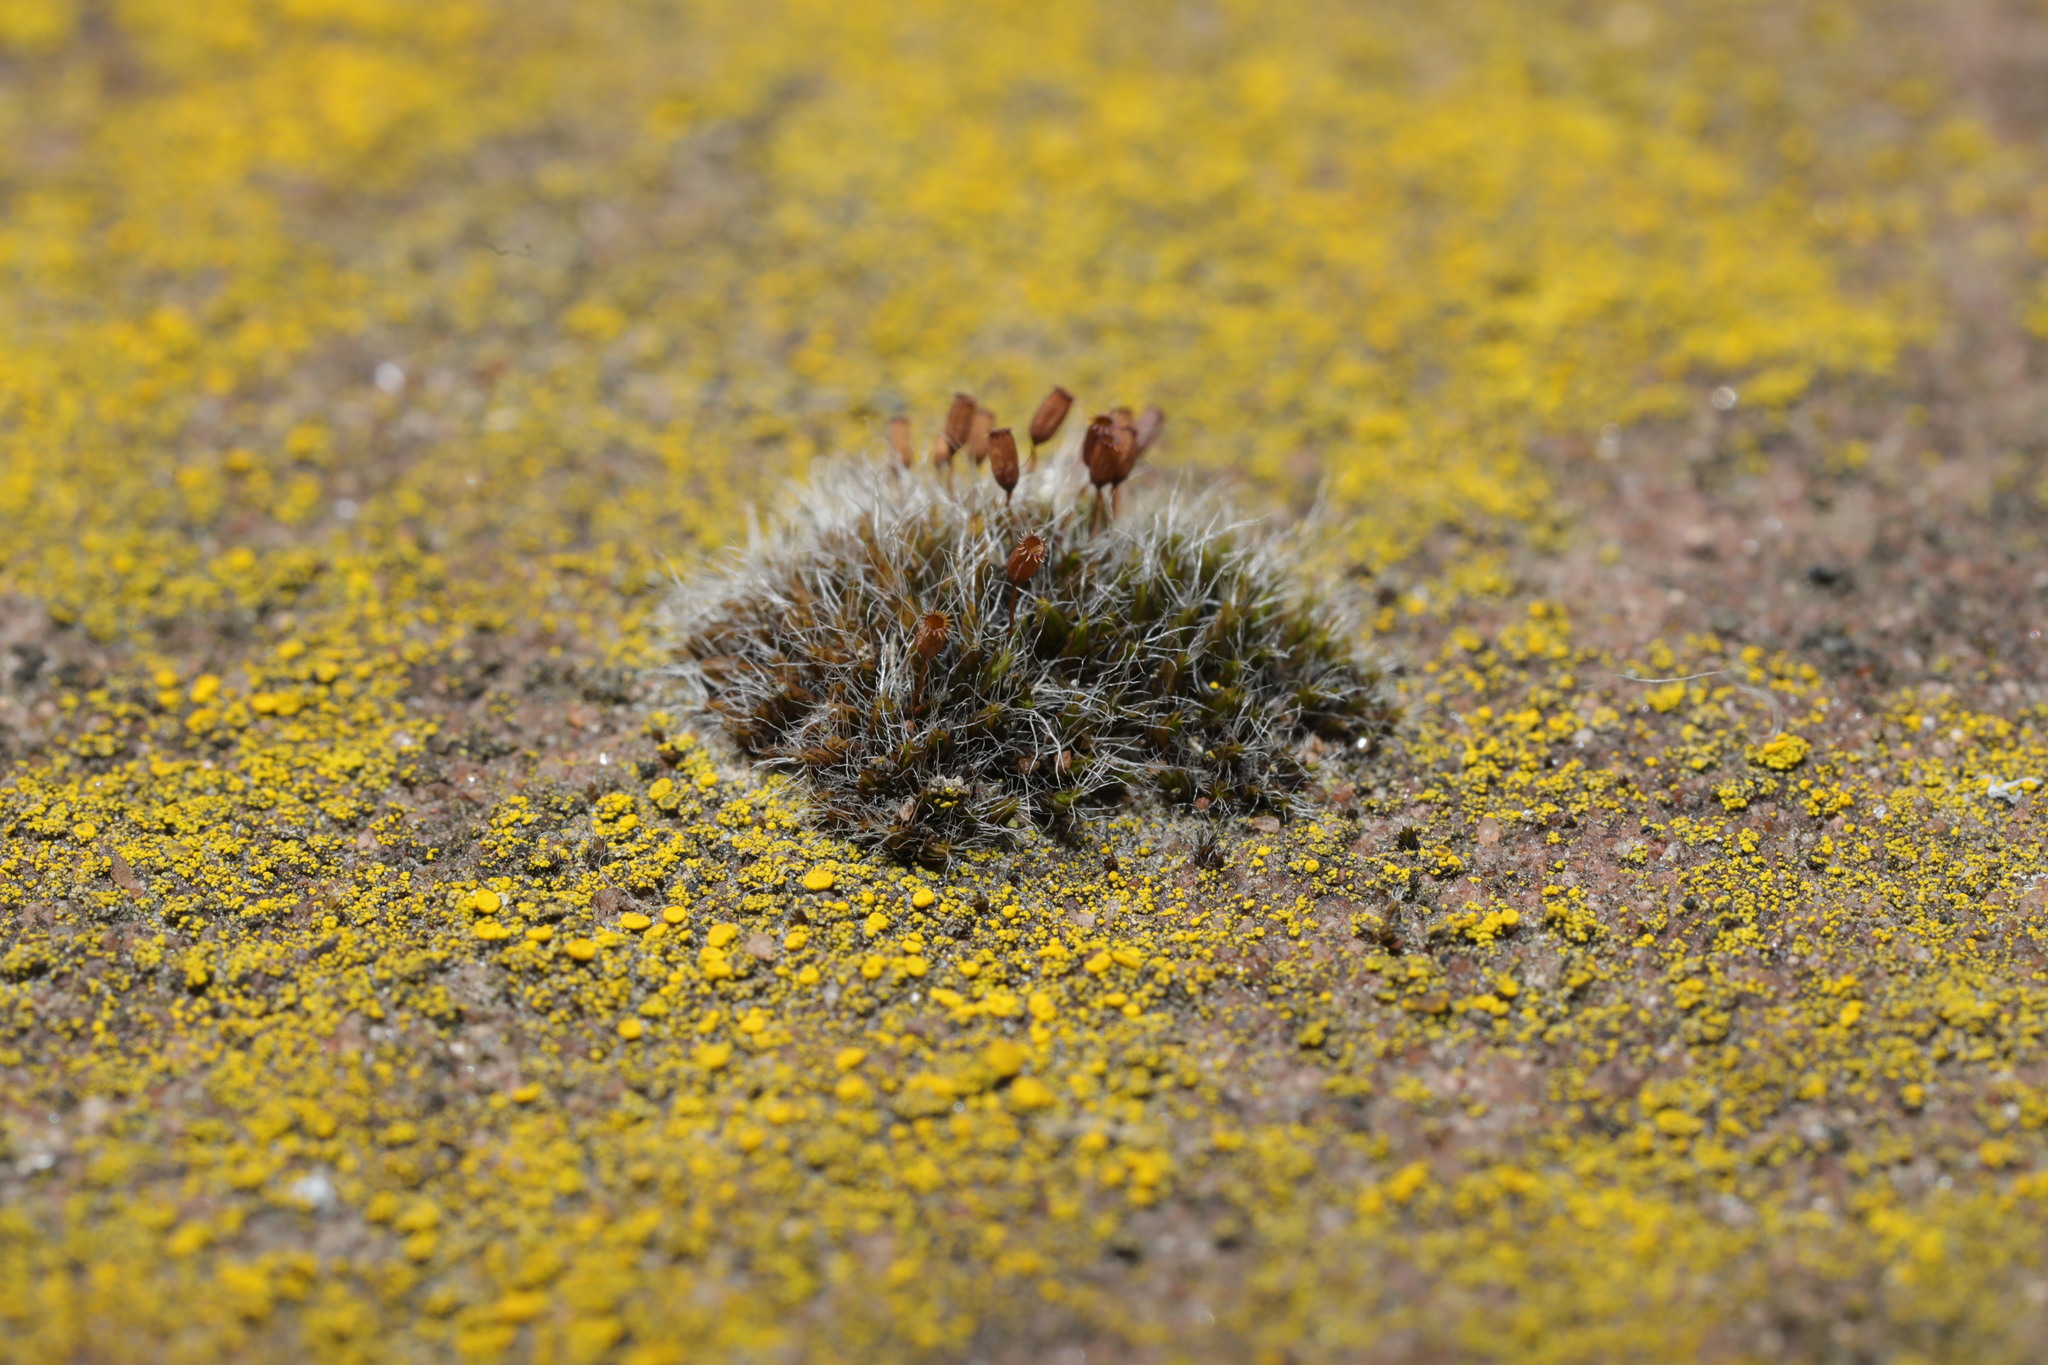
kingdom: Plantae
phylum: Bryophyta
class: Bryopsida
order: Grimmiales
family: Grimmiaceae
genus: Grimmia
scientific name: Grimmia pulvinata
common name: Grey-cushioned grimmia
